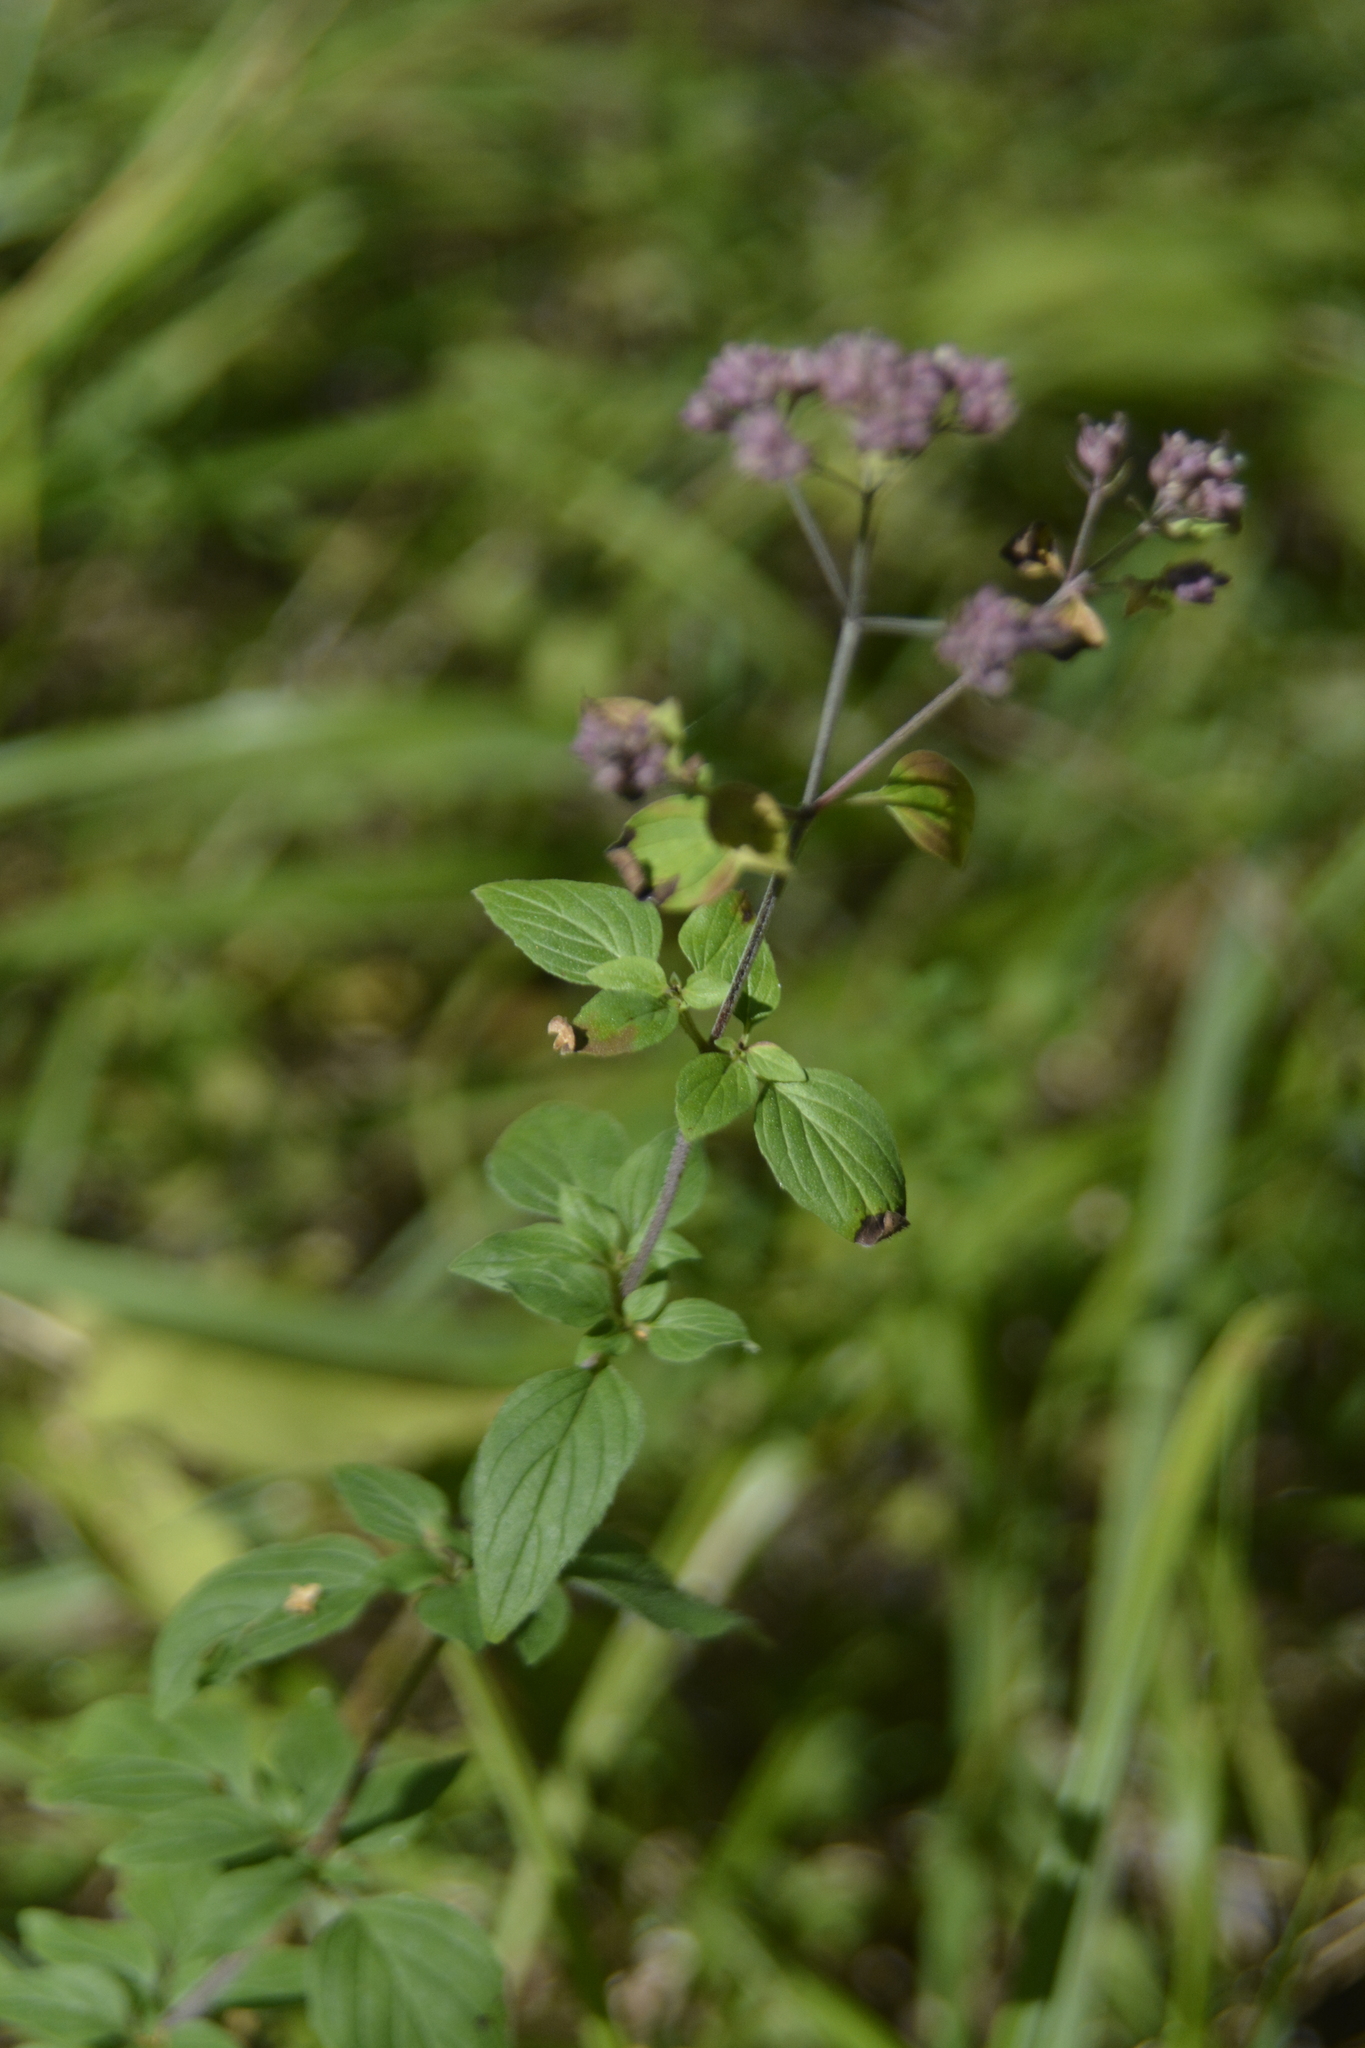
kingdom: Plantae
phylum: Tracheophyta
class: Magnoliopsida
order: Lamiales
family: Lamiaceae
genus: Origanum
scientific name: Origanum vulgare
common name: Wild marjoram
